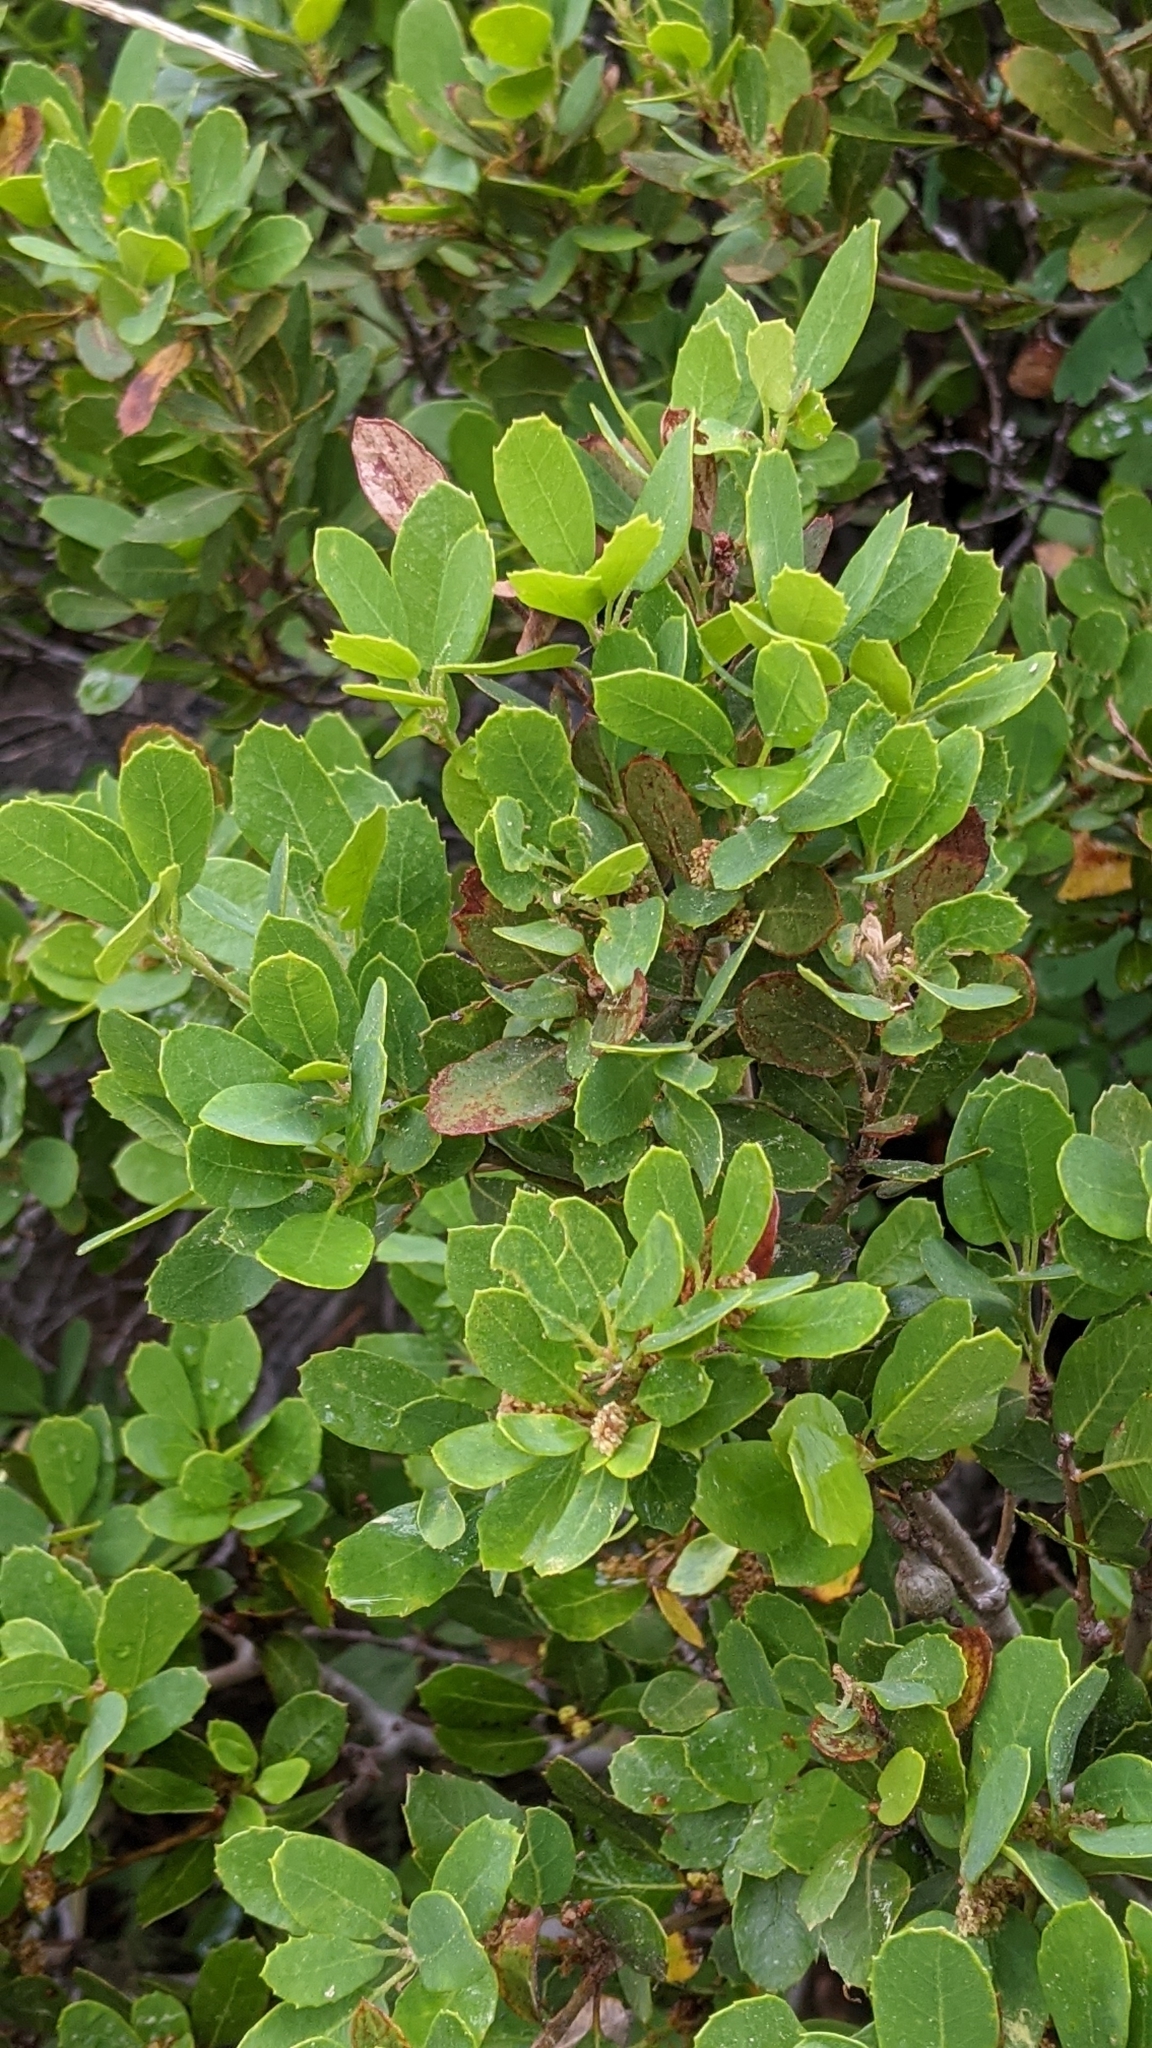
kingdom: Plantae
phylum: Tracheophyta
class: Magnoliopsida
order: Fagales
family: Fagaceae
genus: Quercus
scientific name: Quercus vacciniifolia
